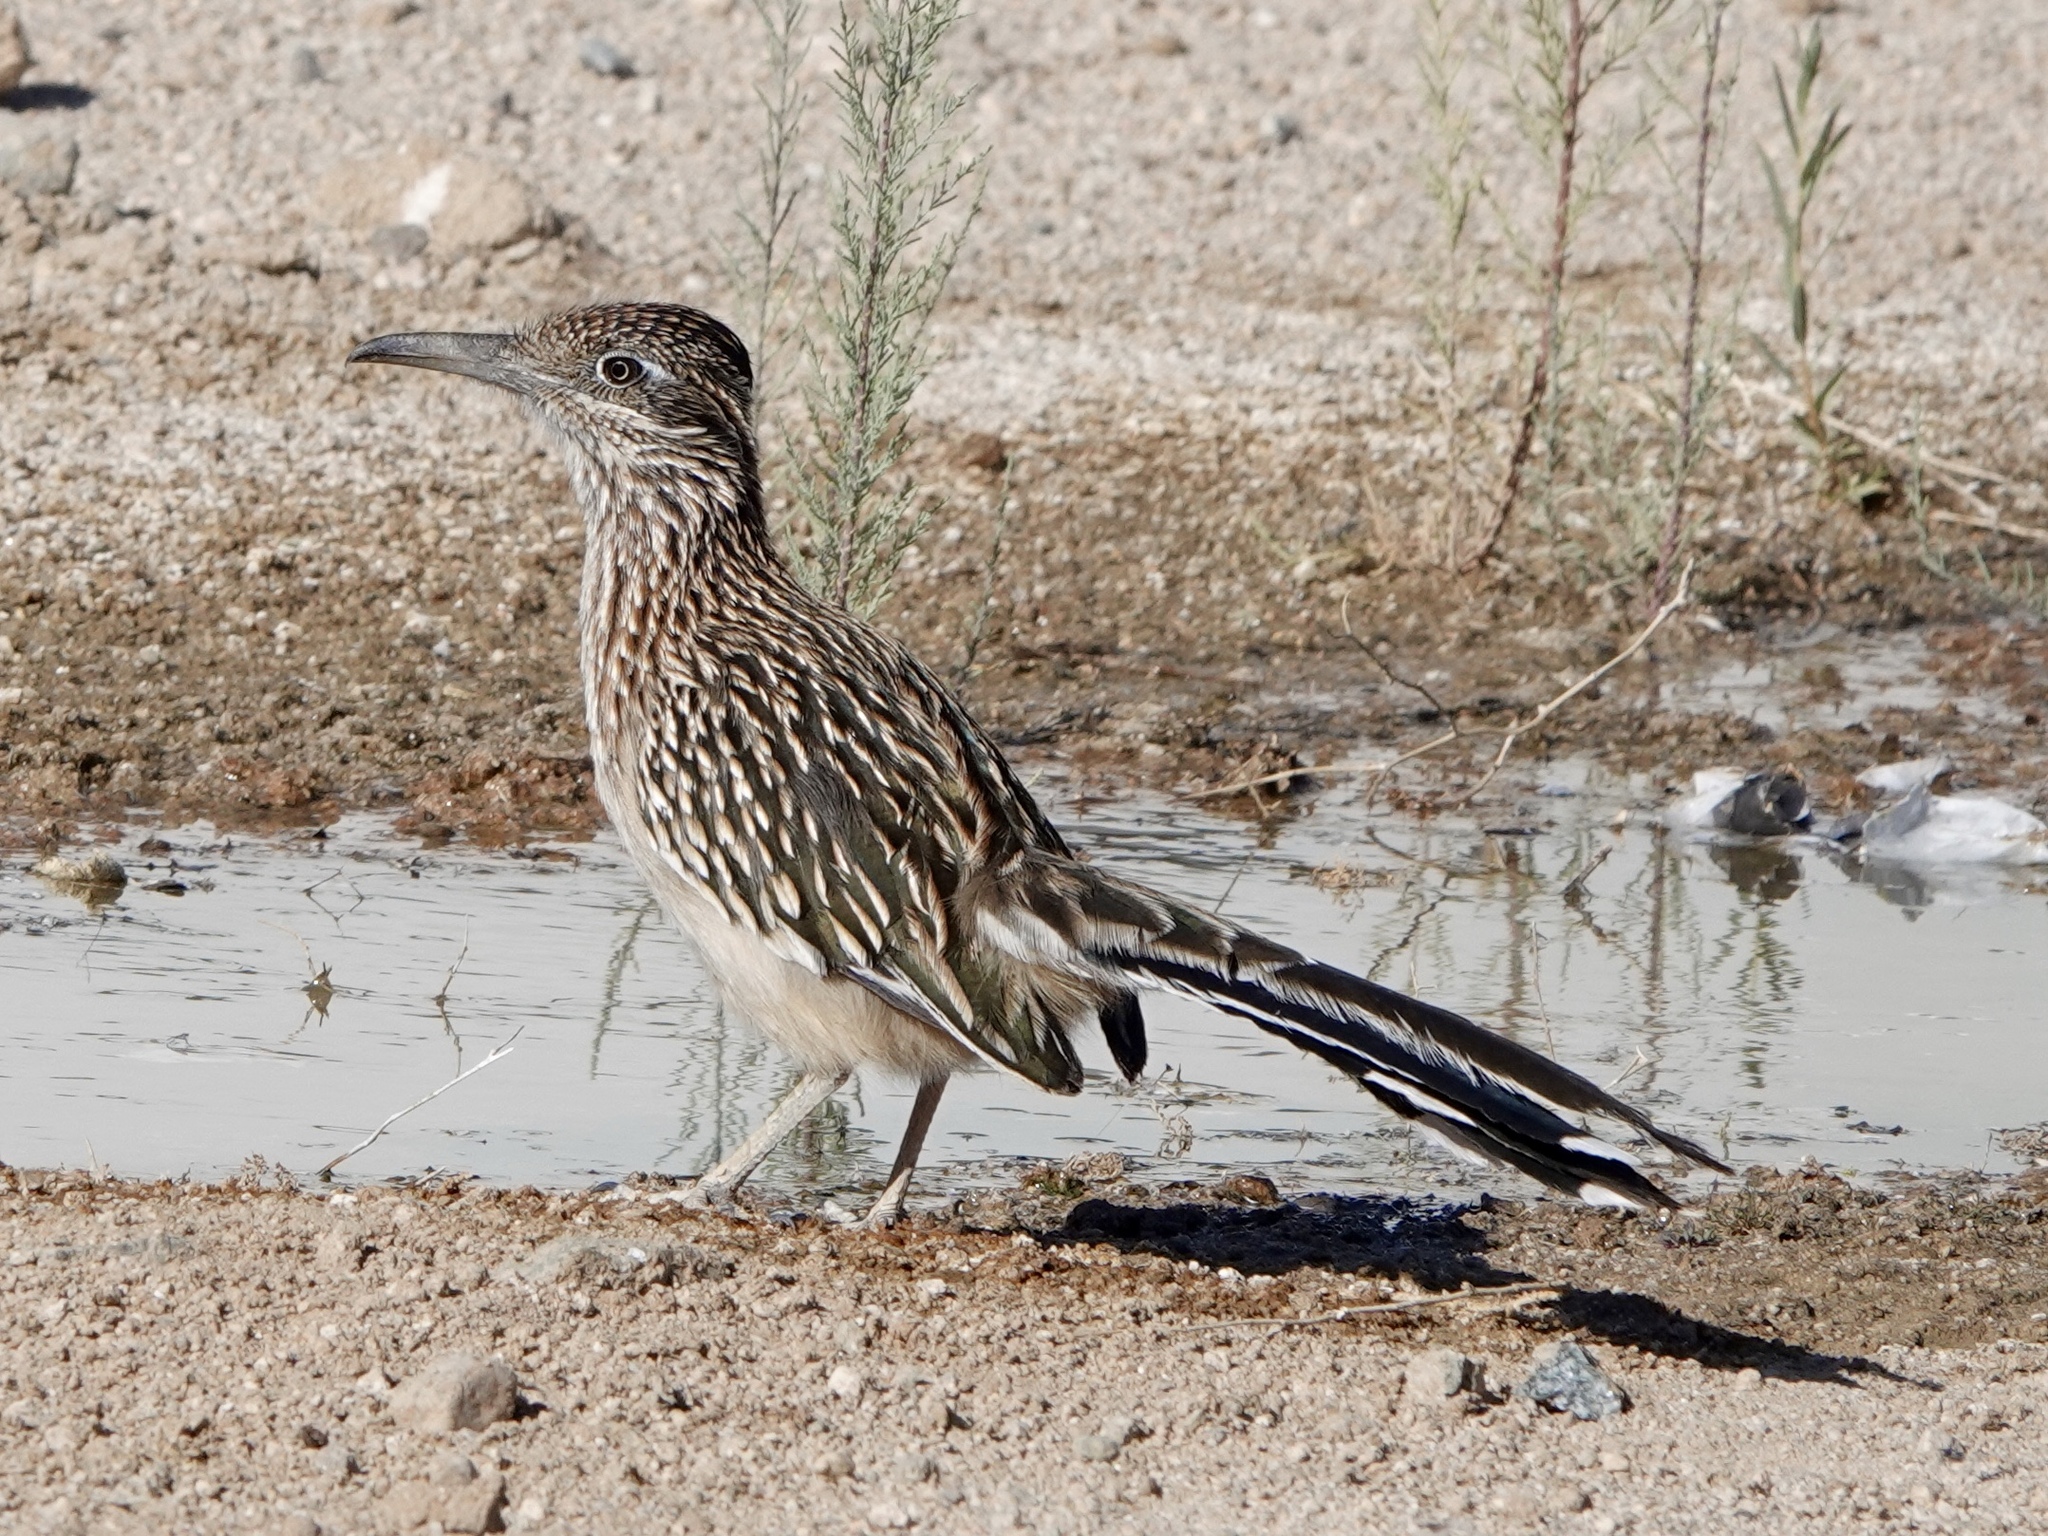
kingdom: Animalia
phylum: Chordata
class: Aves
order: Cuculiformes
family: Cuculidae
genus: Geococcyx
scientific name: Geococcyx californianus
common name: Greater roadrunner
